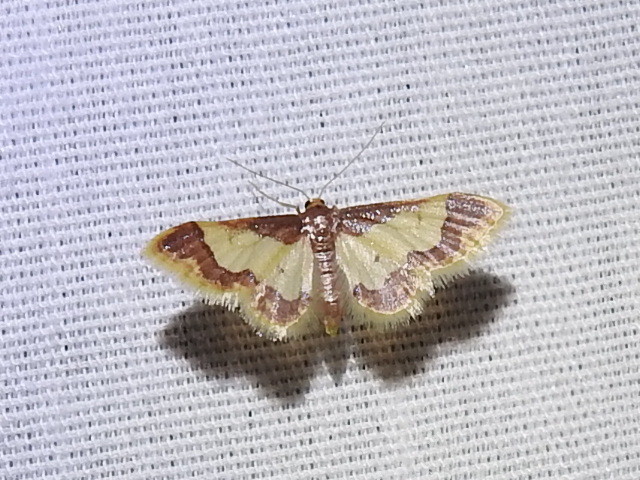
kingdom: Animalia
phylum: Arthropoda
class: Insecta
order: Lepidoptera
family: Geometridae
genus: Idaea
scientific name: Idaea basinta
